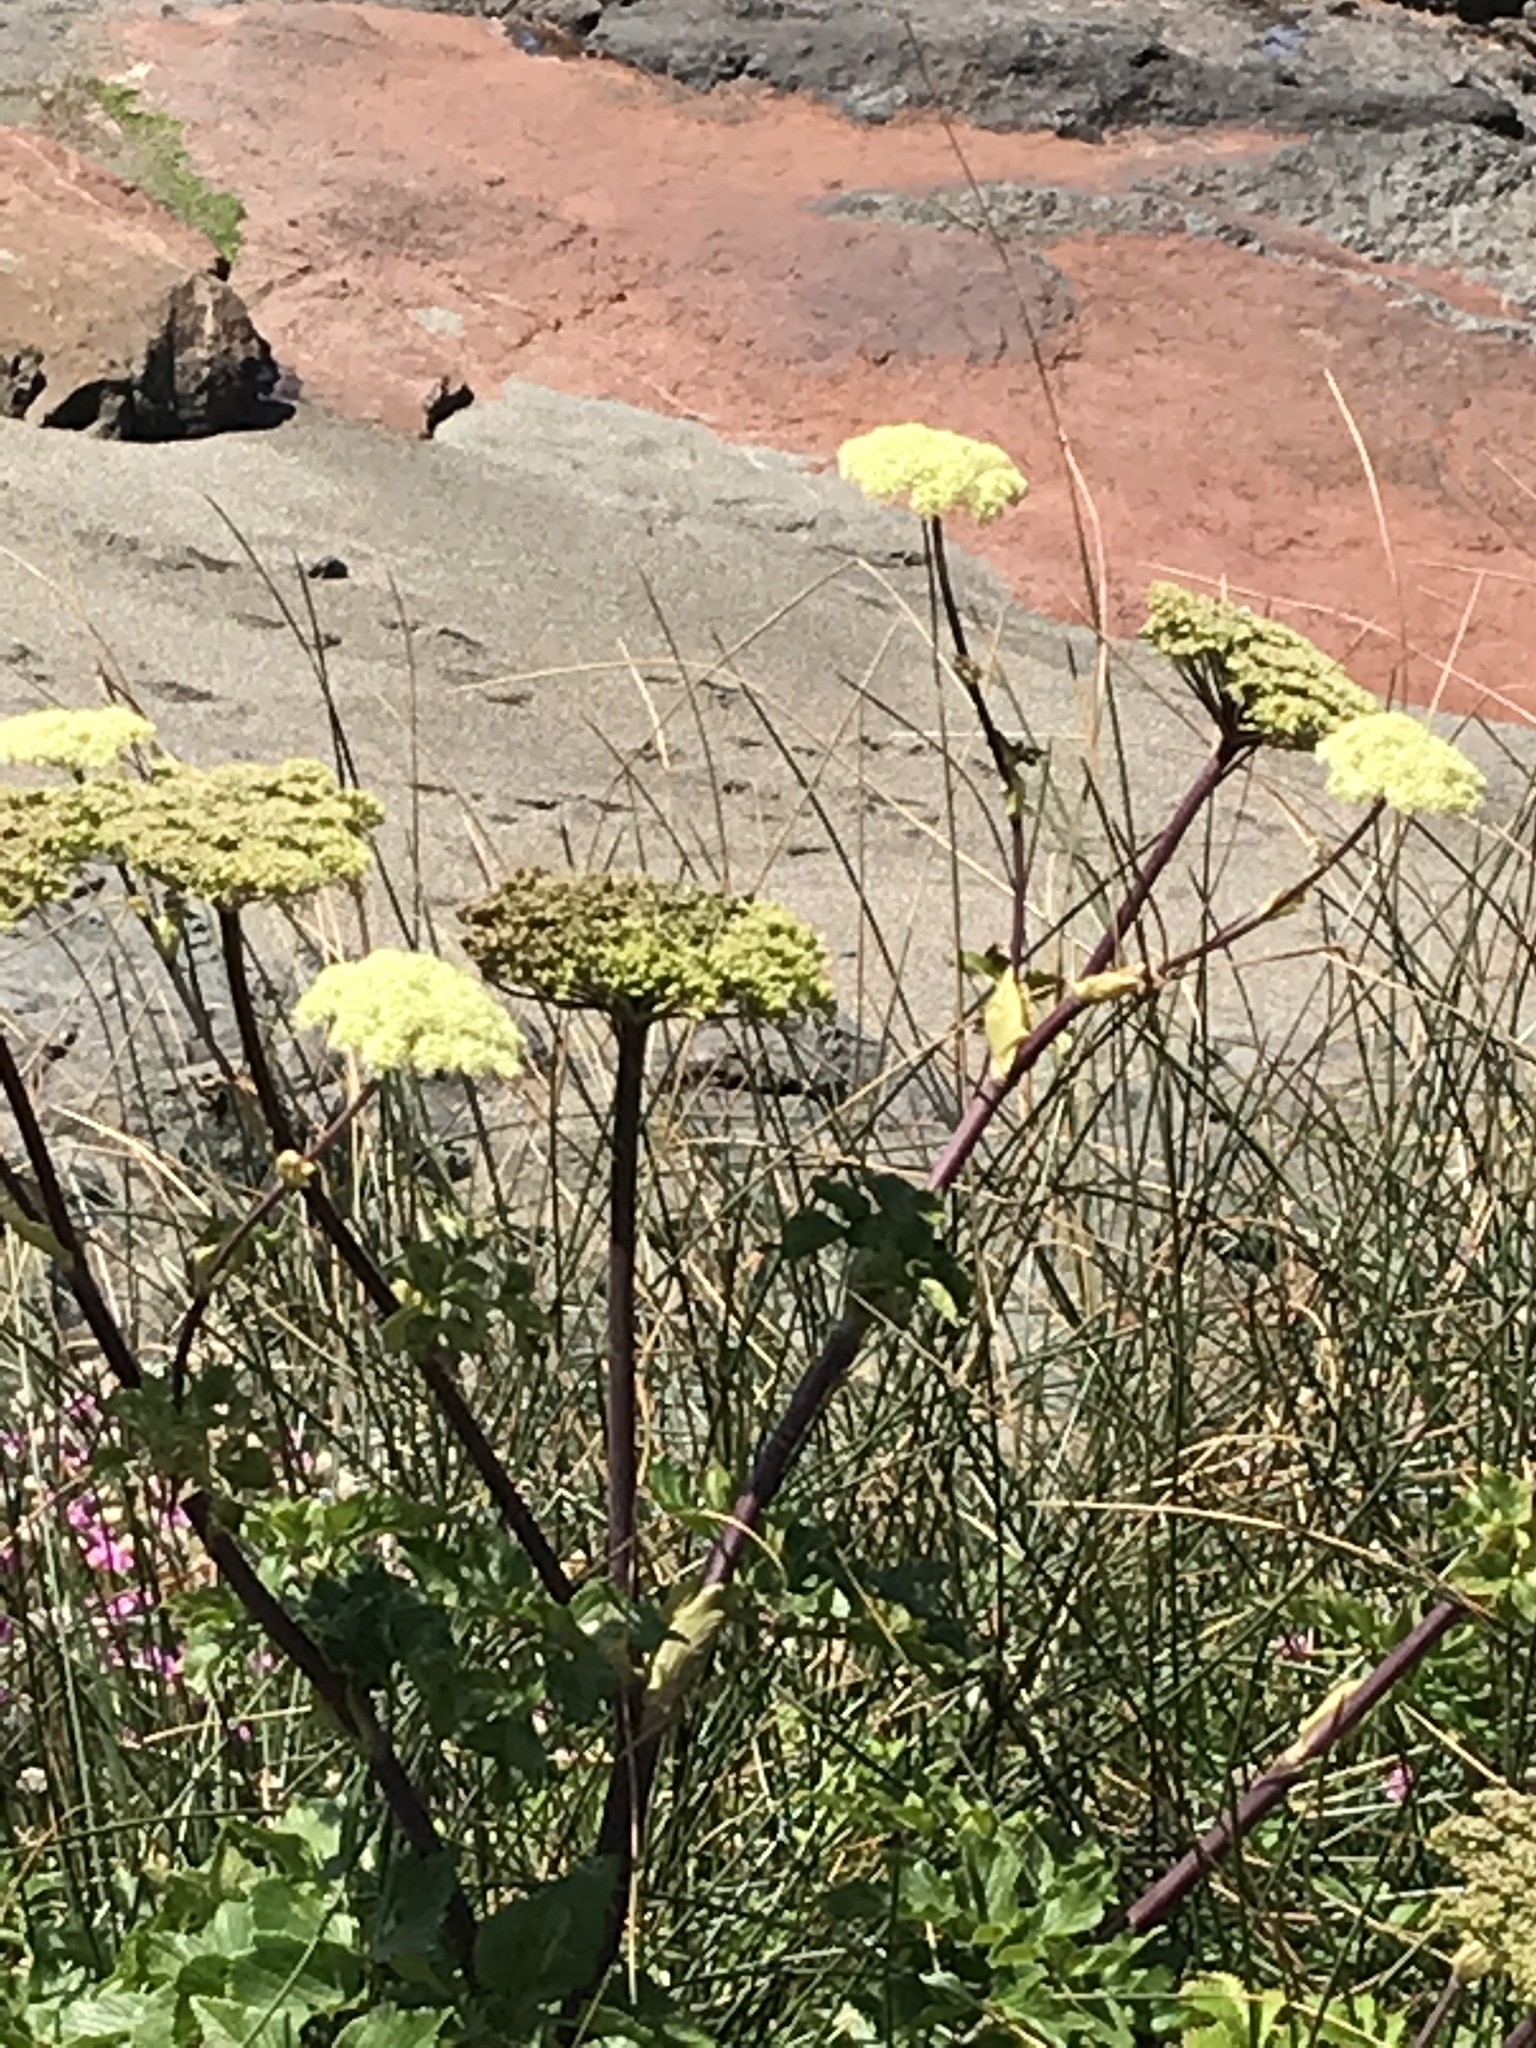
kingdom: Plantae
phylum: Tracheophyta
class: Magnoliopsida
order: Apiales
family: Apiaceae
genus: Angelica
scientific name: Angelica lucida
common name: Seabeach angelica
